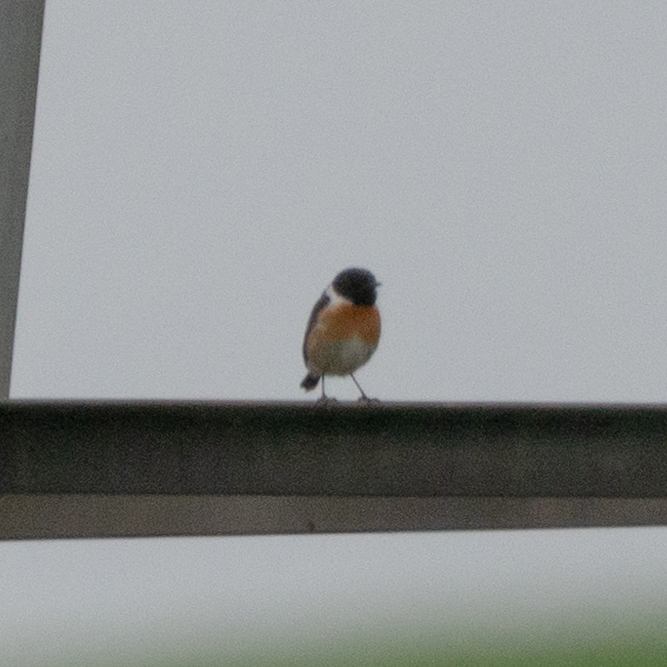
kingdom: Animalia
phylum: Chordata
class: Aves
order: Passeriformes
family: Muscicapidae
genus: Saxicola
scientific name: Saxicola rubicola
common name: European stonechat
